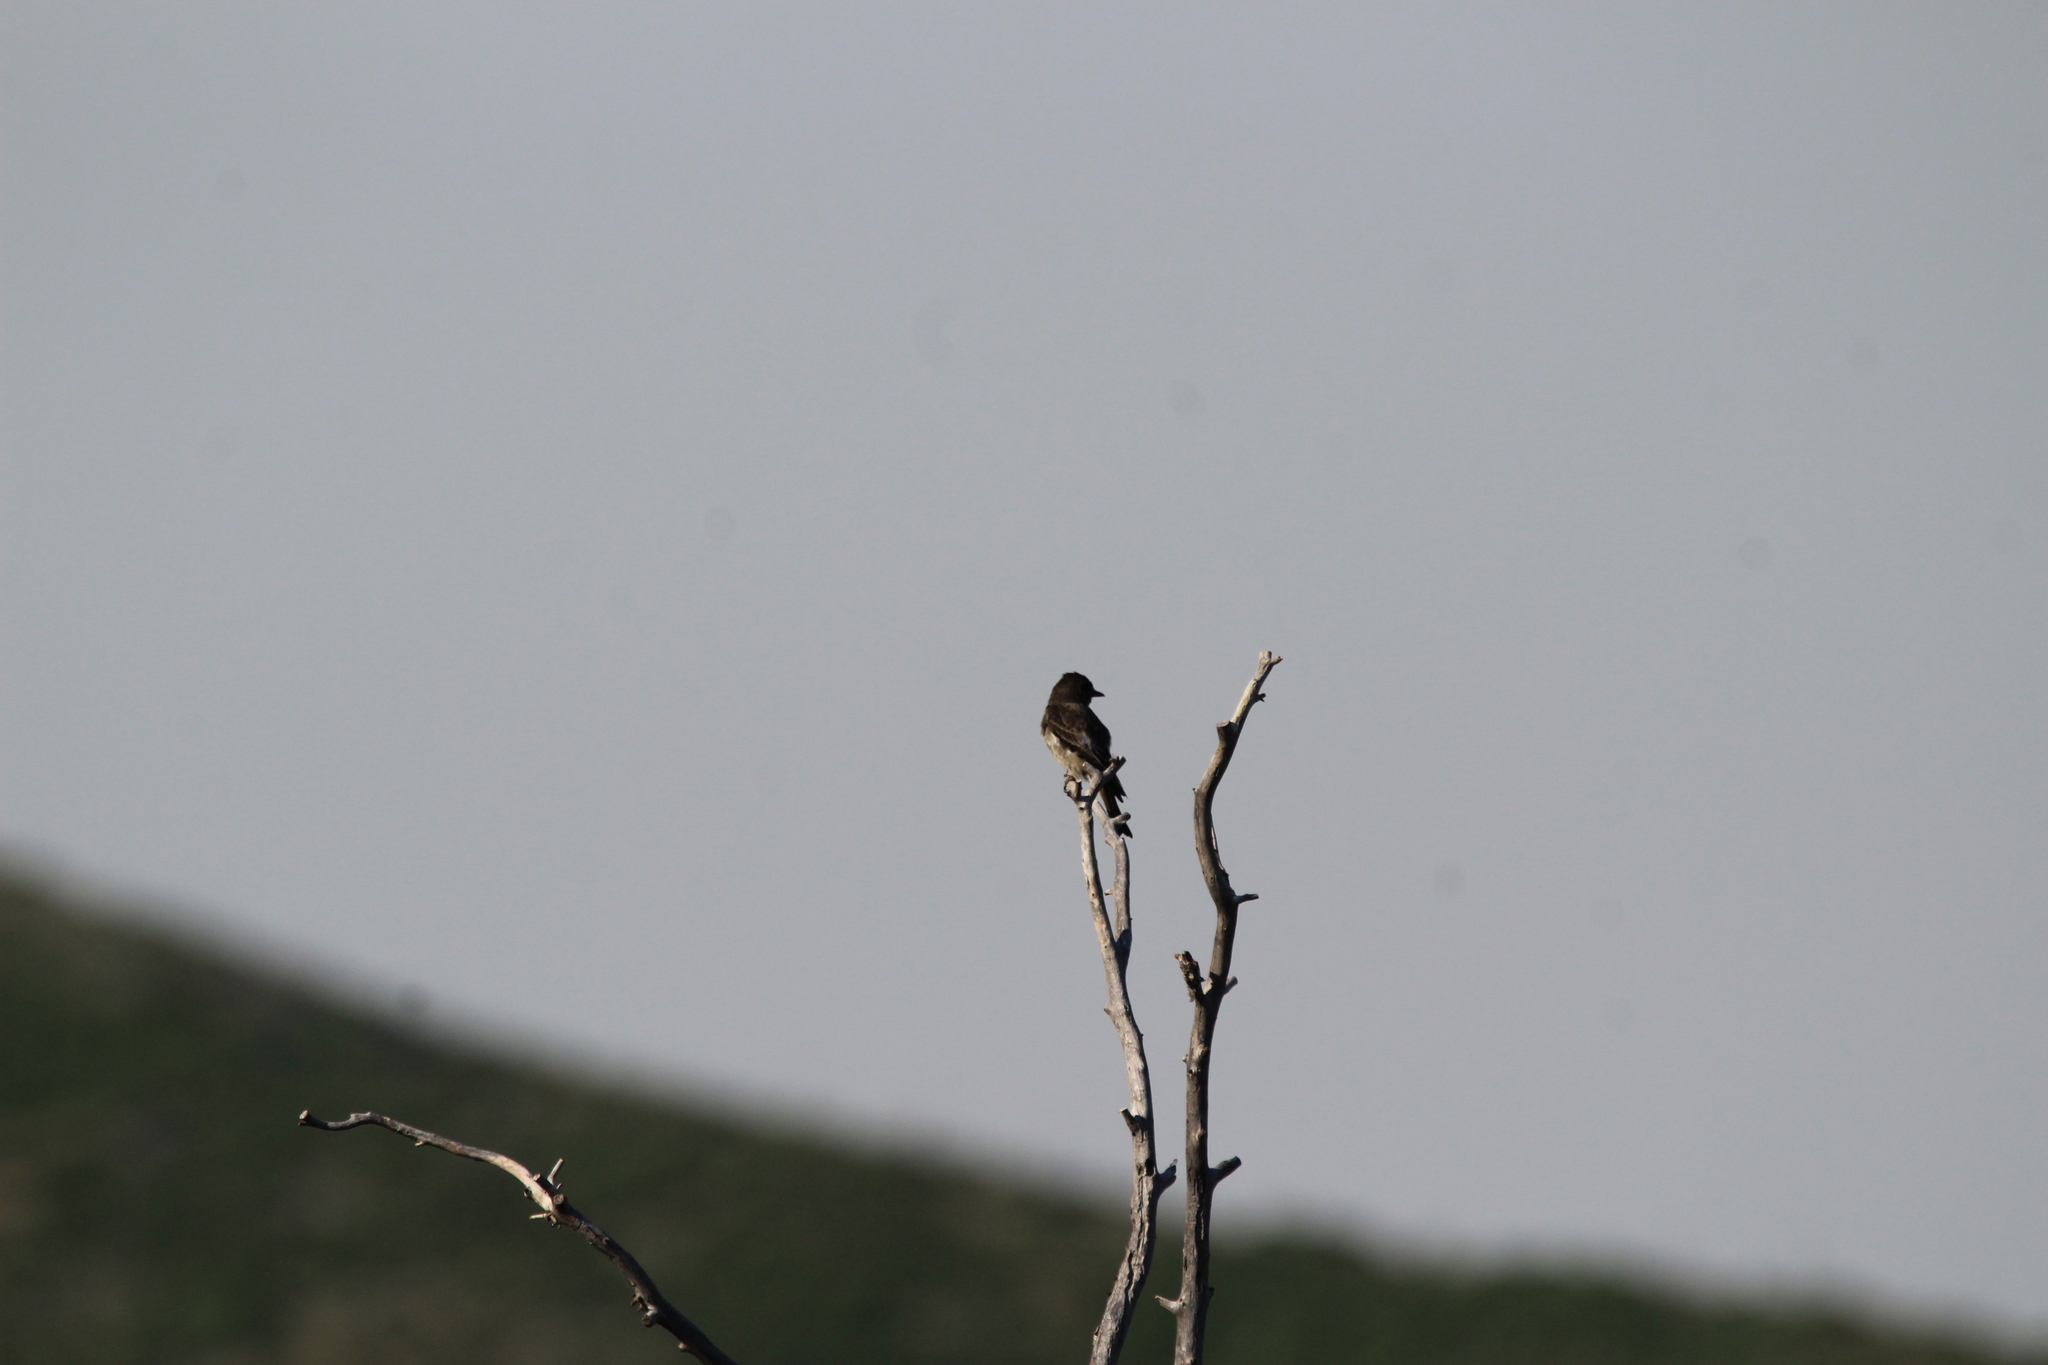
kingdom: Animalia
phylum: Chordata
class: Aves
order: Passeriformes
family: Tyrannidae
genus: Contopus
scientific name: Contopus cooperi
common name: Olive-sided flycatcher
